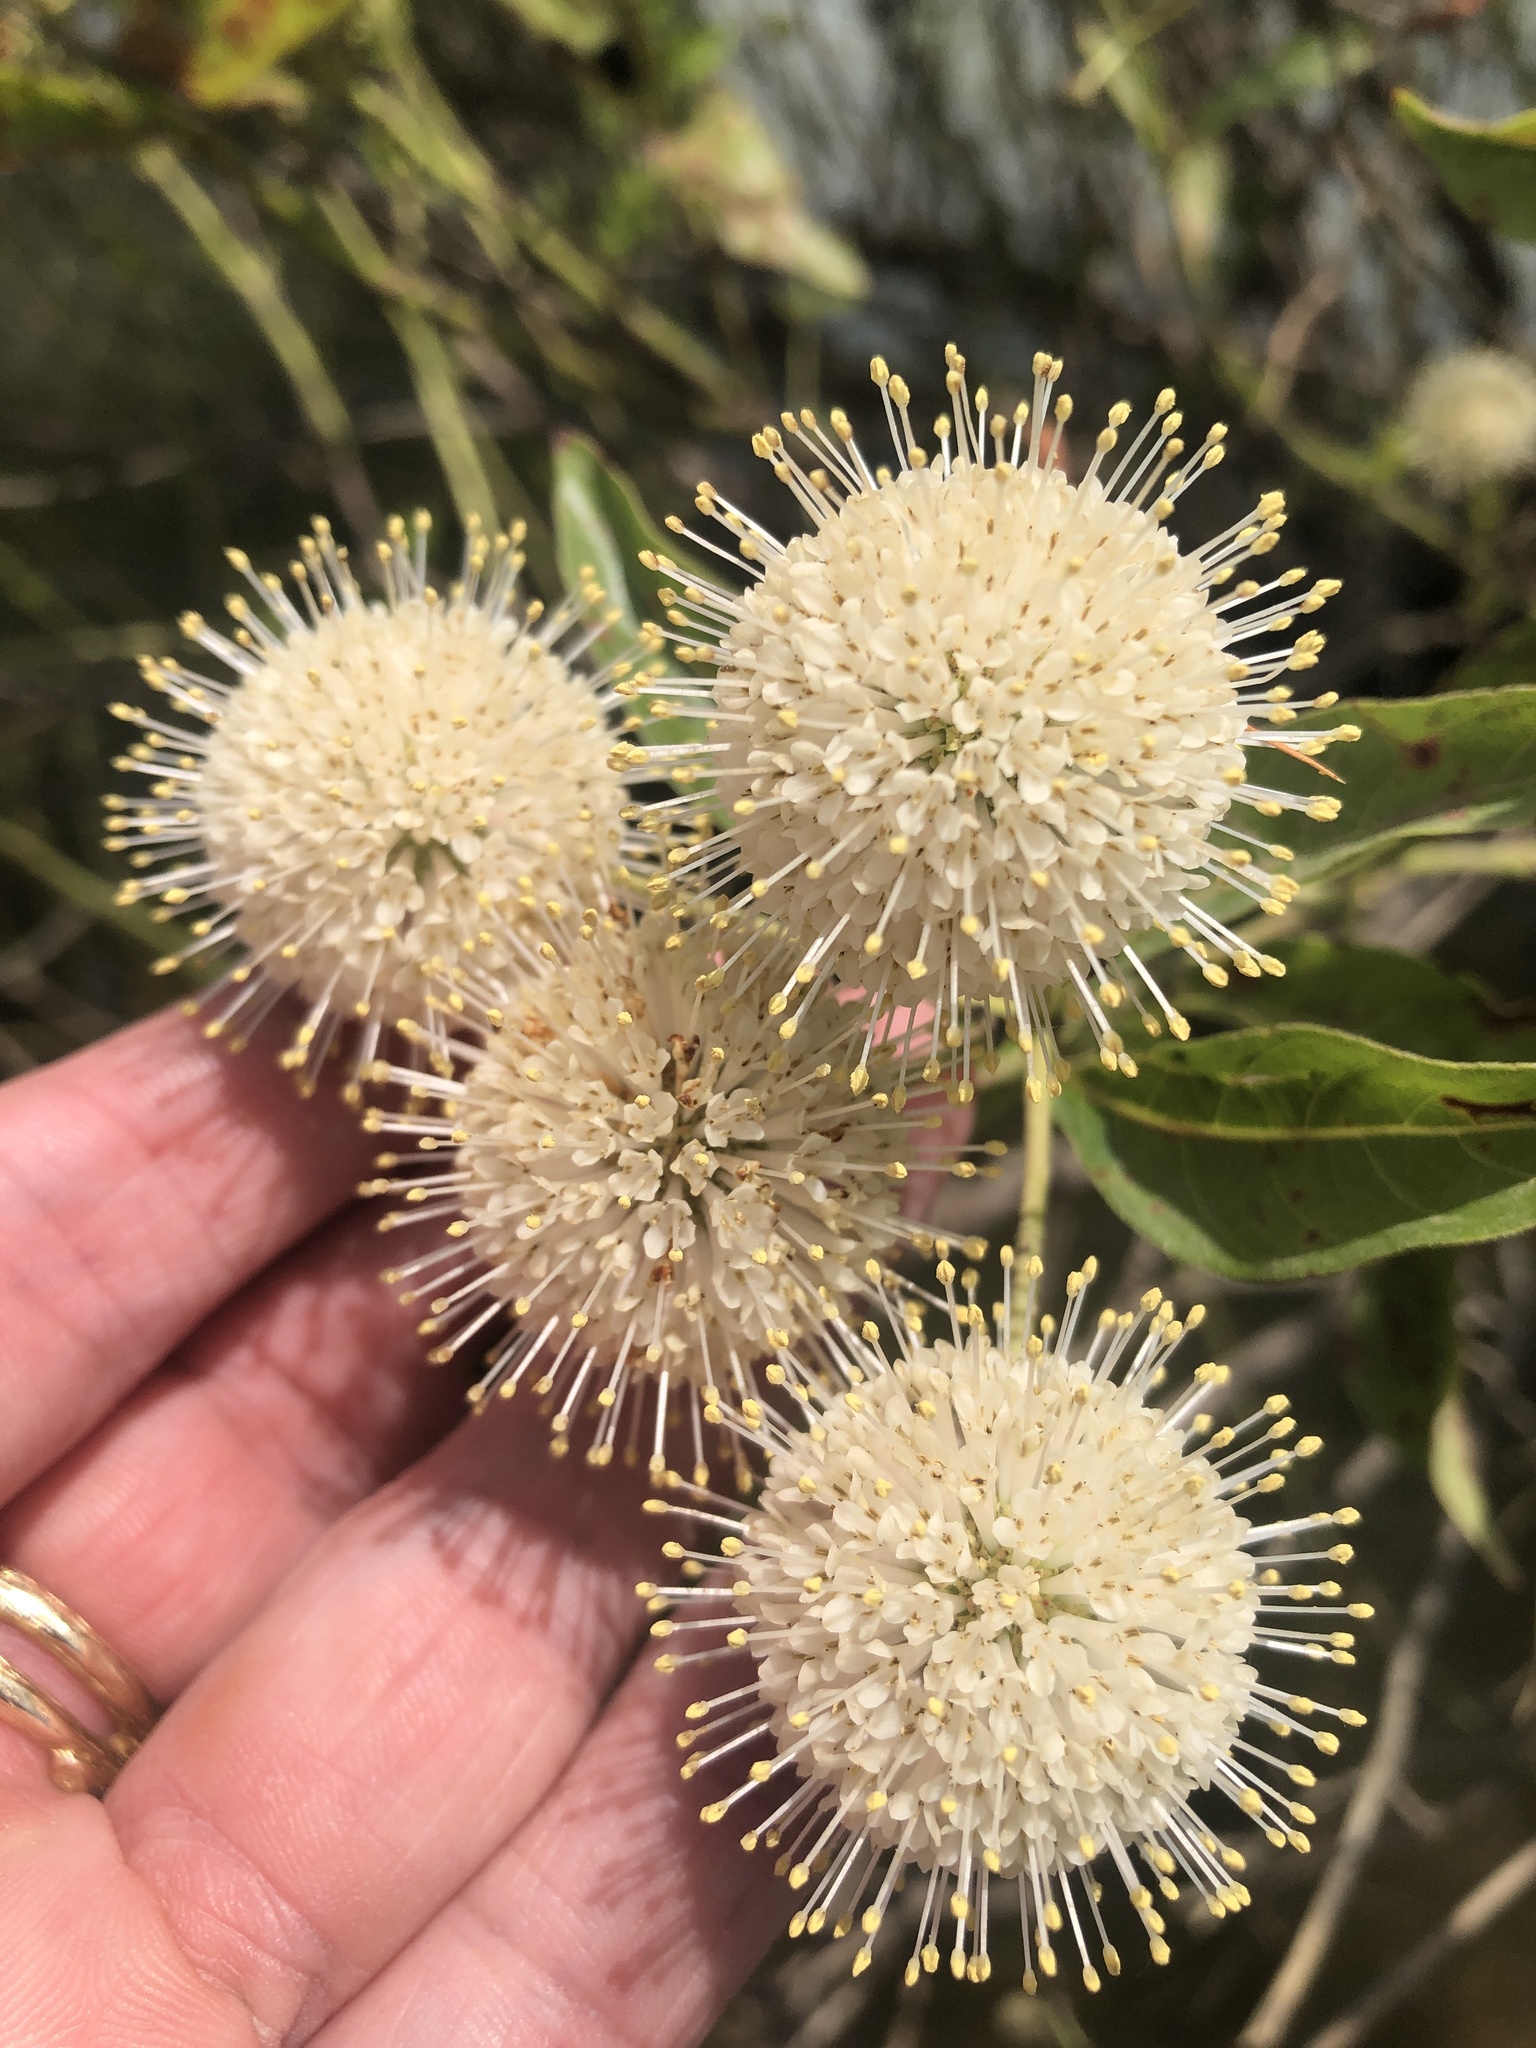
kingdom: Plantae
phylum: Tracheophyta
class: Magnoliopsida
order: Gentianales
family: Rubiaceae
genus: Cephalanthus
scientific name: Cephalanthus occidentalis
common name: Button-willow
